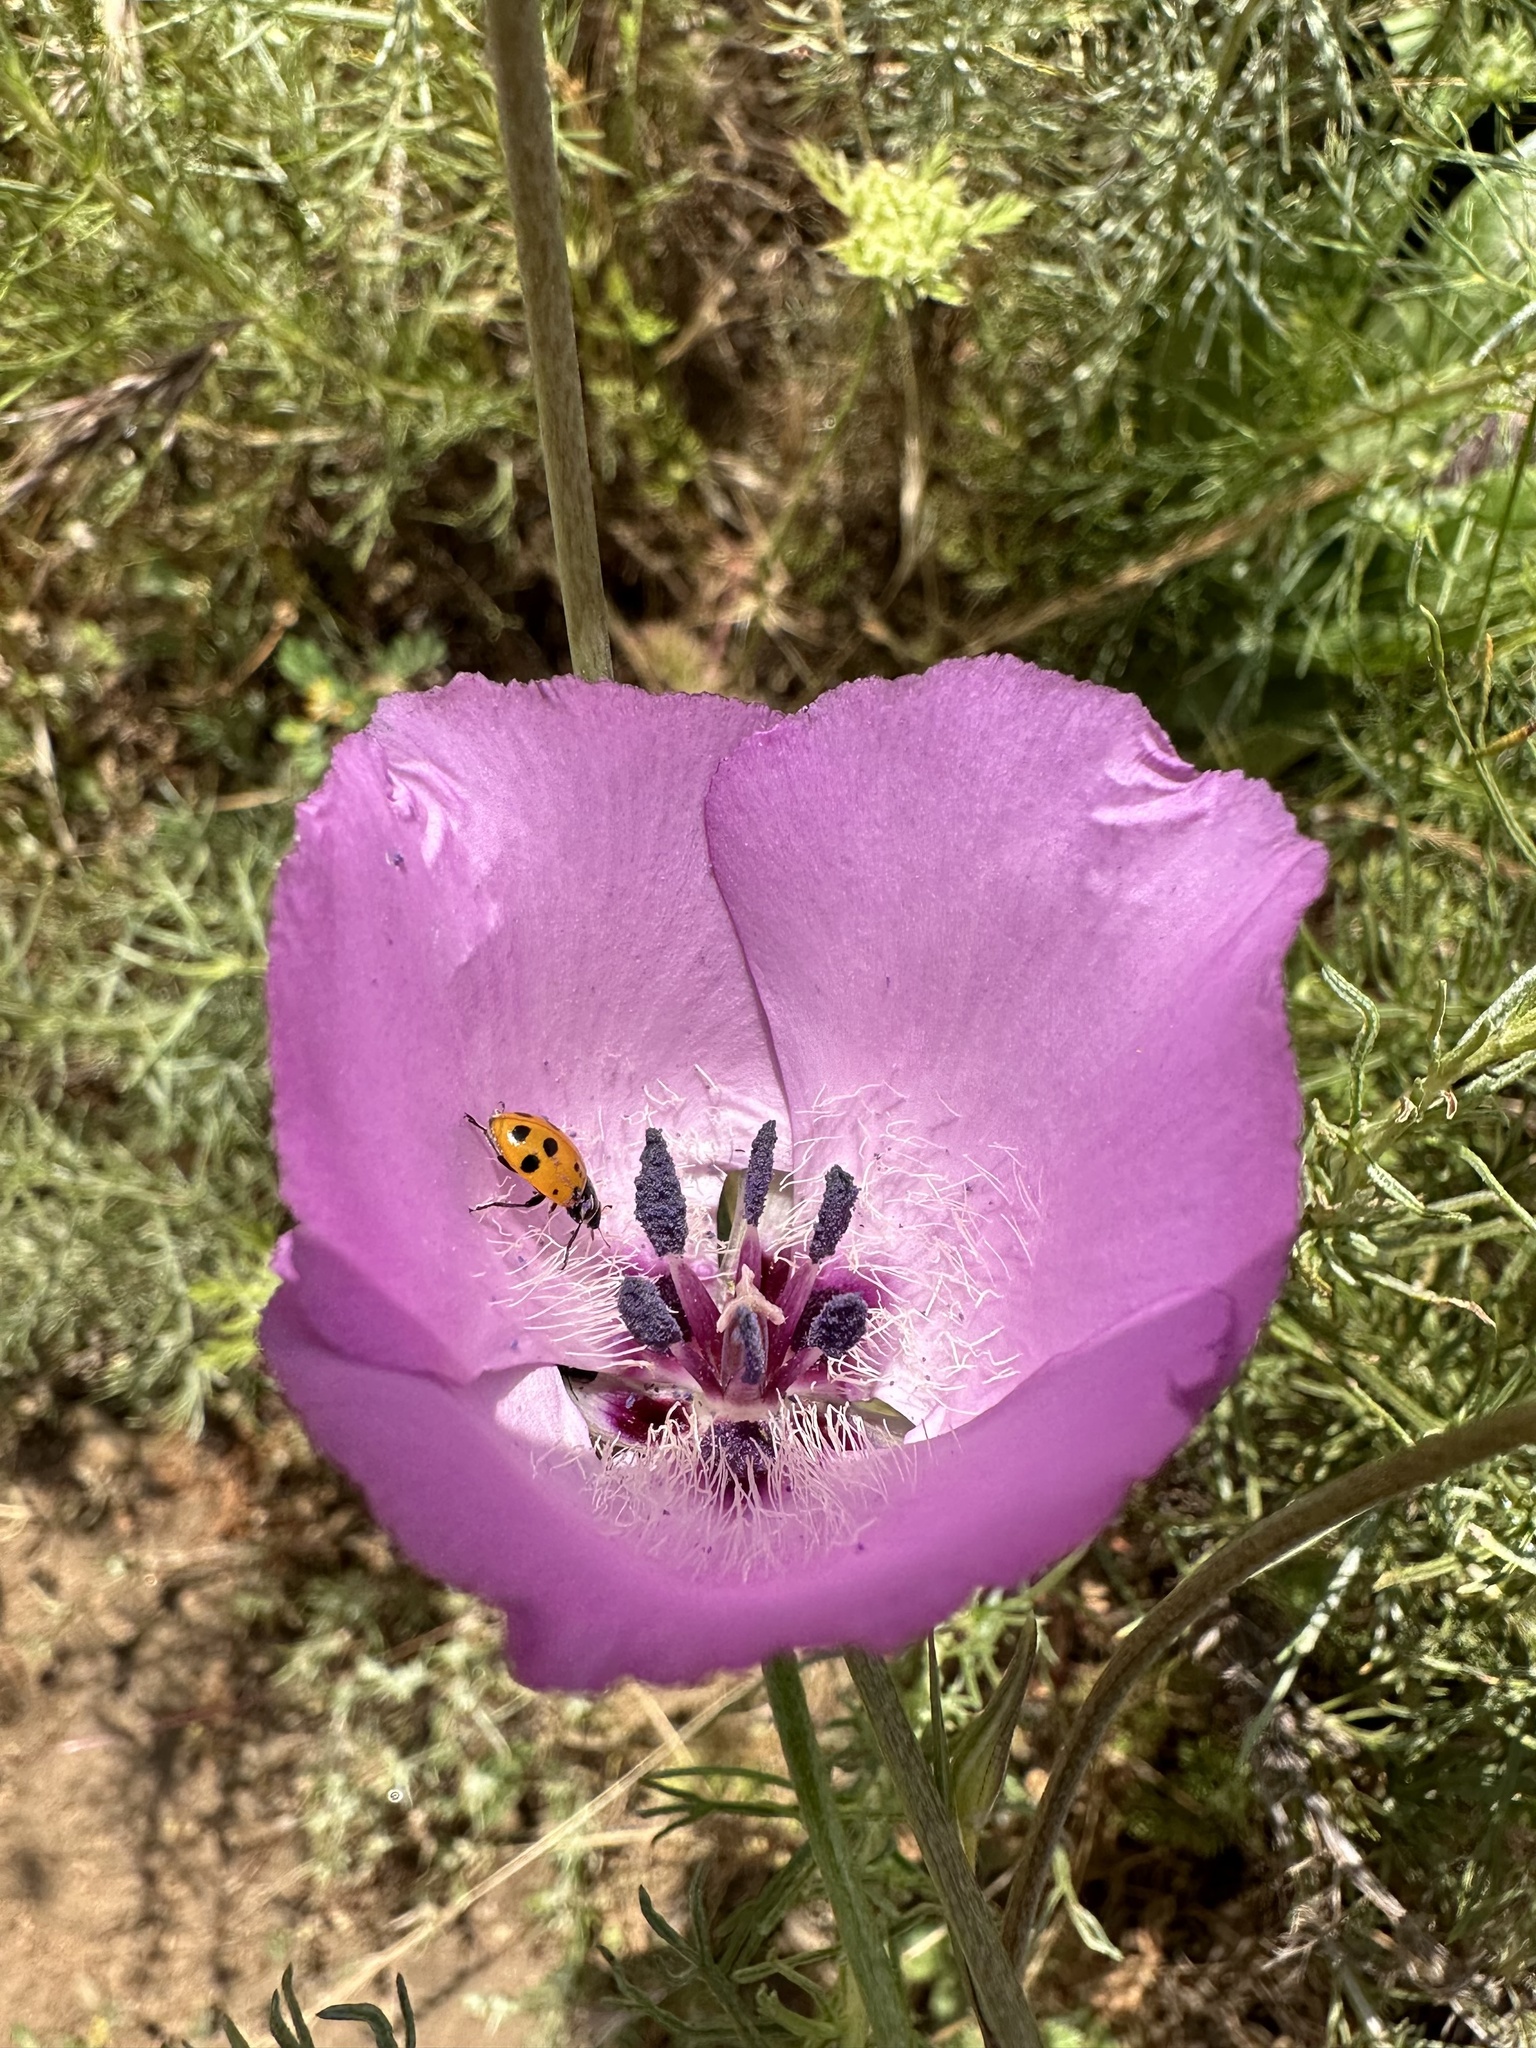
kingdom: Plantae
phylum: Tracheophyta
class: Liliopsida
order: Liliales
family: Liliaceae
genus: Calochortus
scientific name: Calochortus splendens
